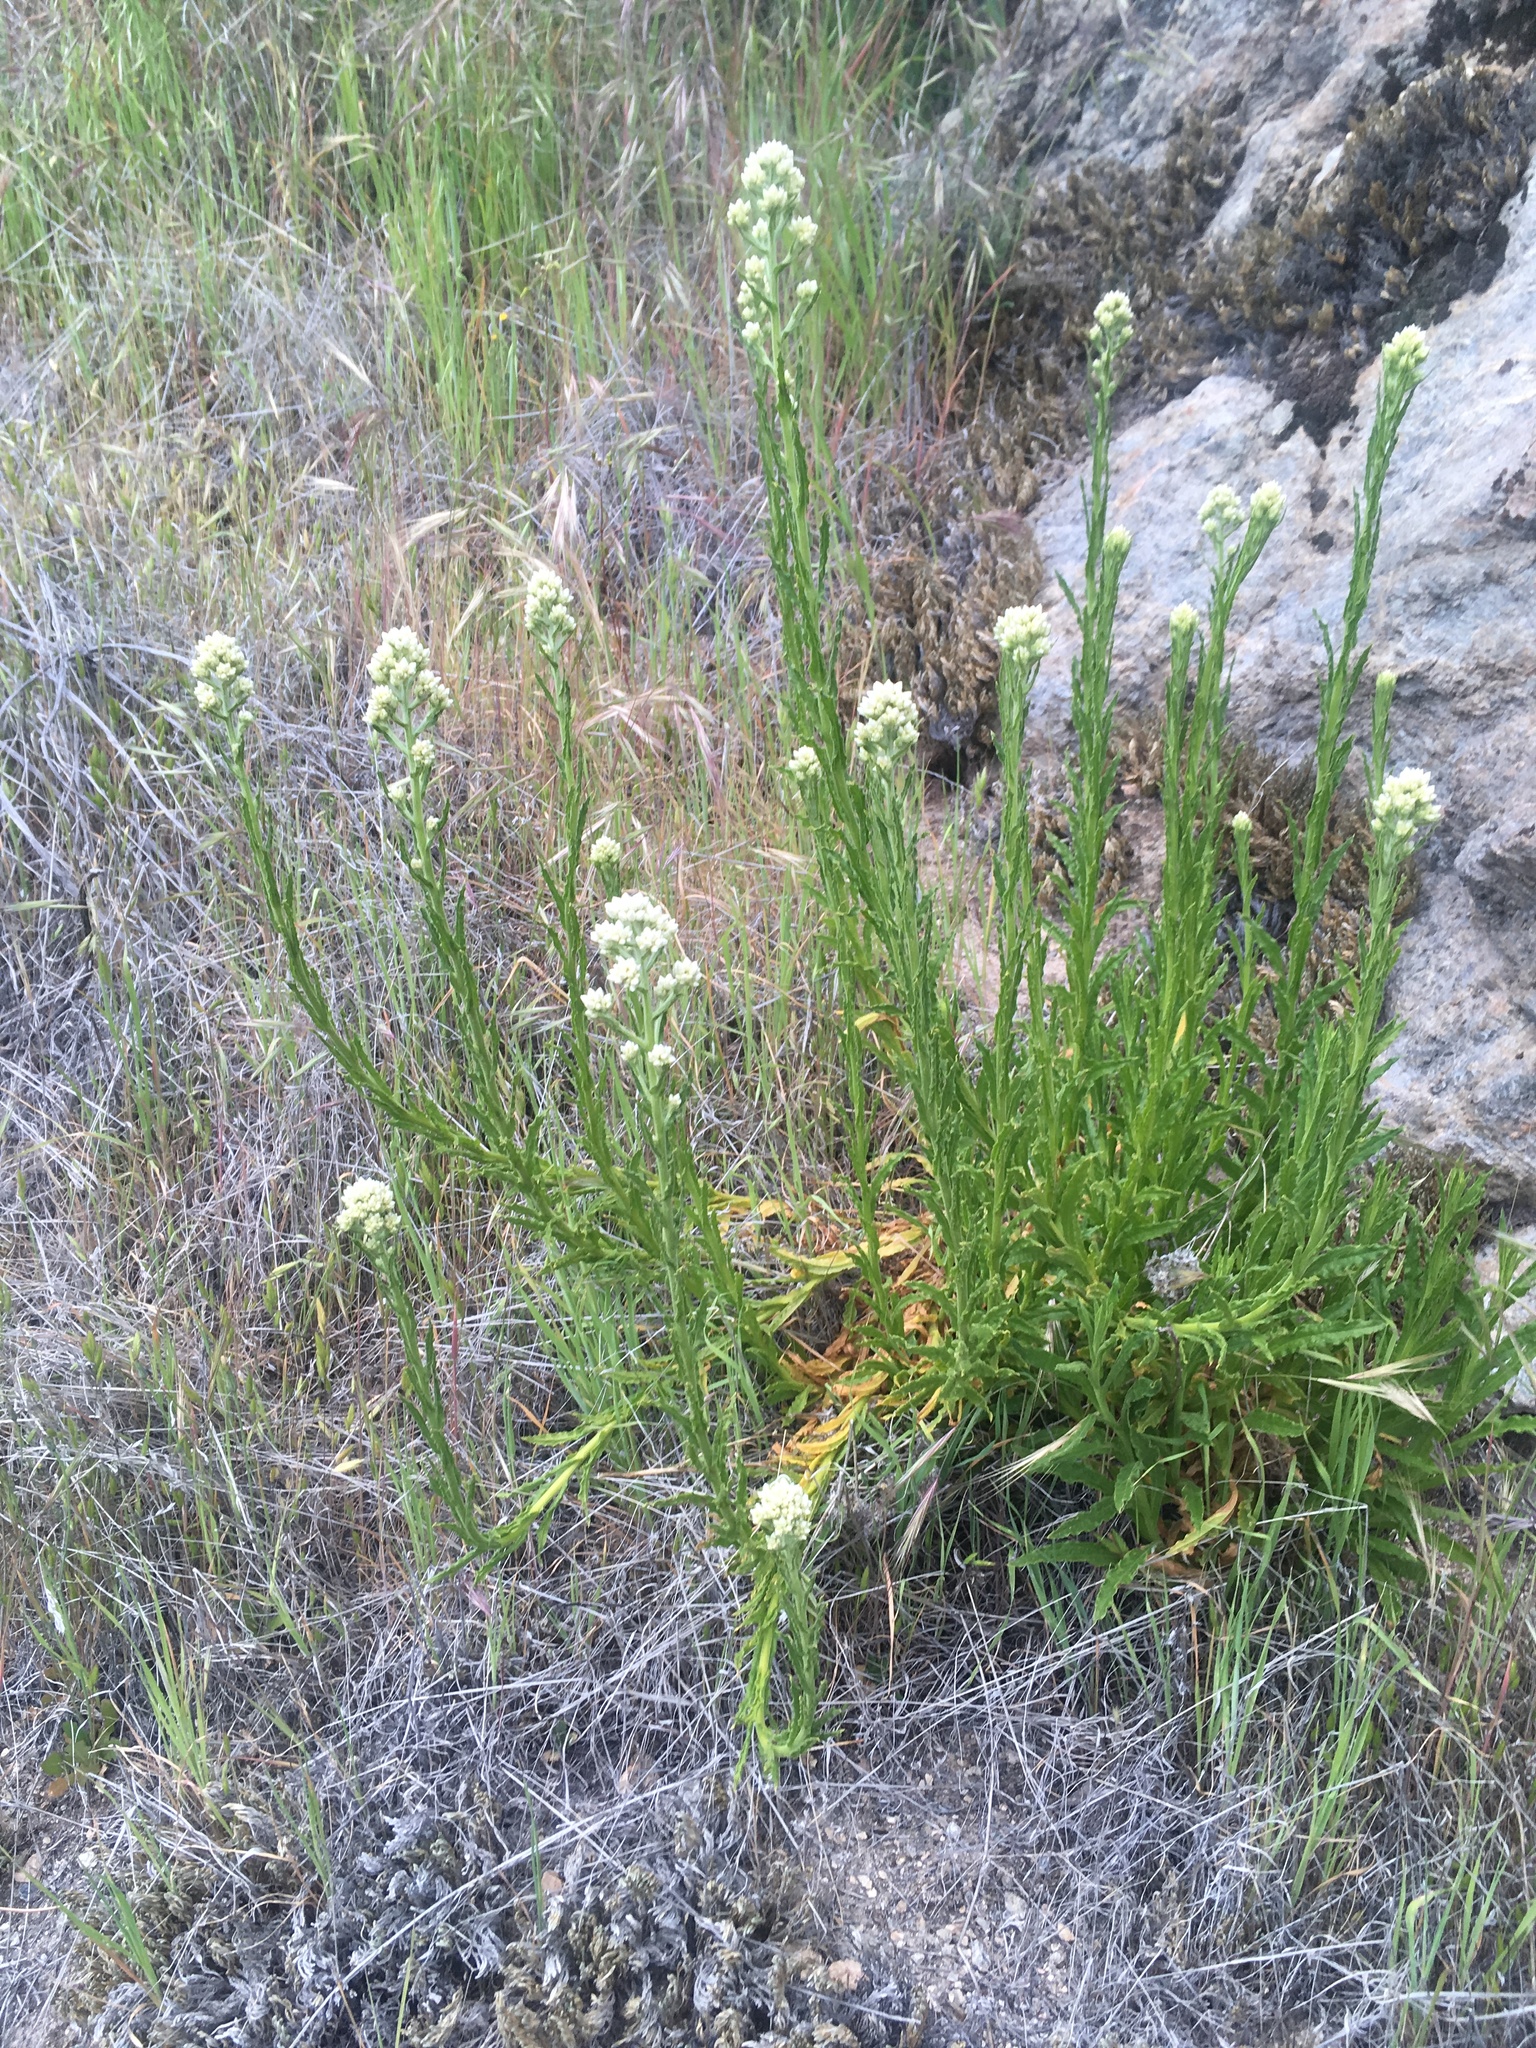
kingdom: Plantae
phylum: Tracheophyta
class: Magnoliopsida
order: Asterales
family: Asteraceae
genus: Pseudognaphalium
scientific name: Pseudognaphalium californicum
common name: California rabbit-tobacco
